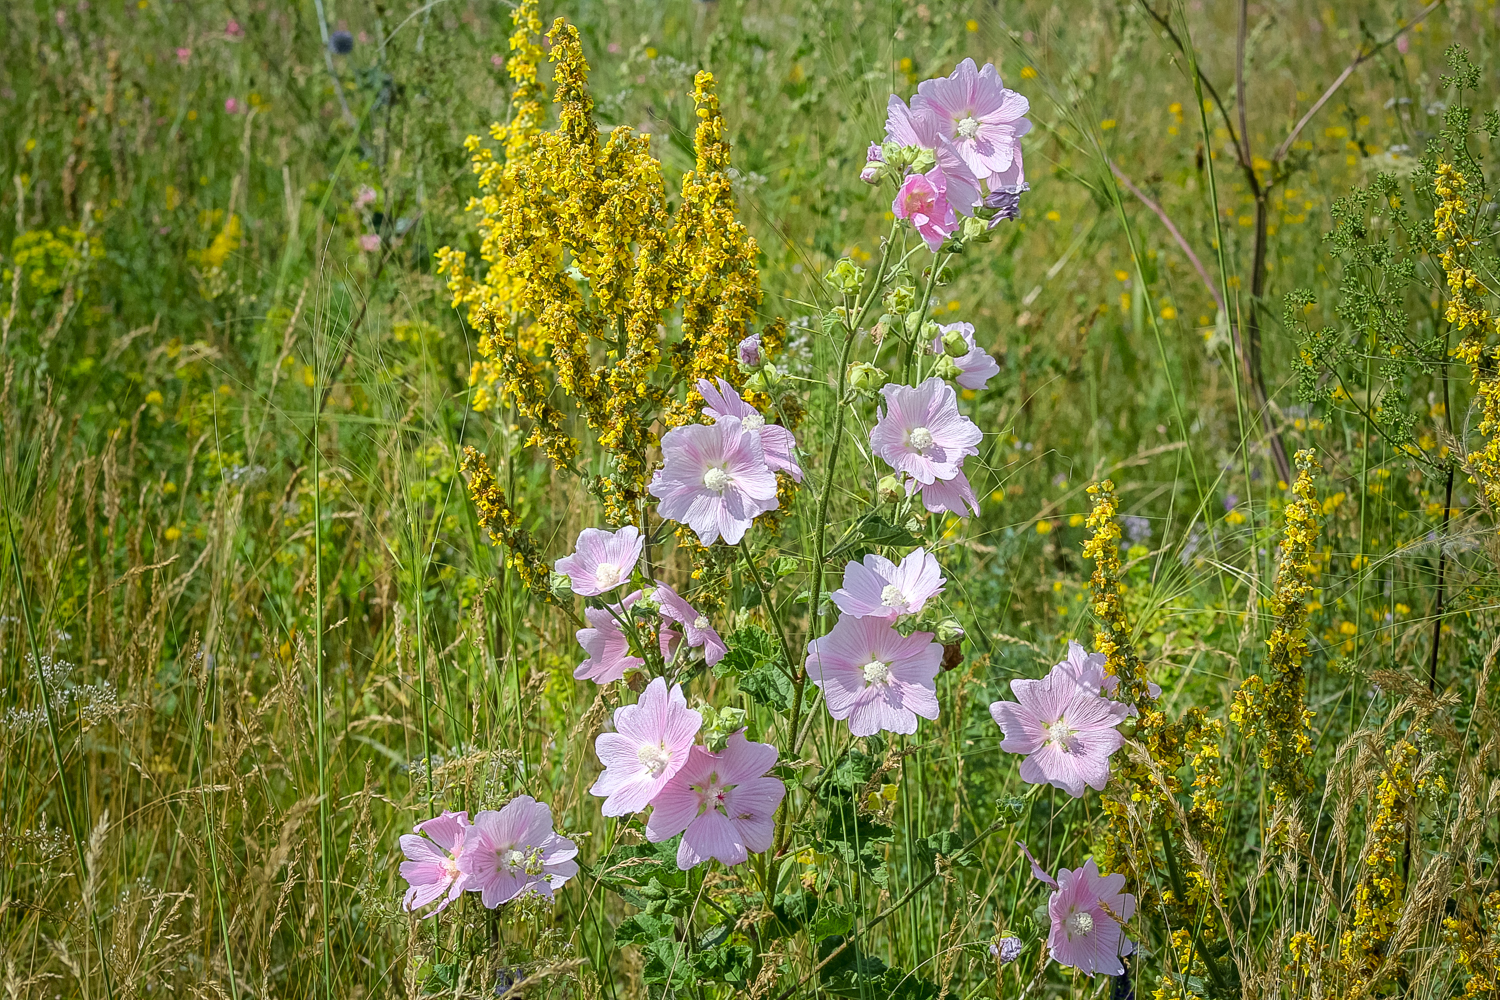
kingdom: Plantae
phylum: Tracheophyta
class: Magnoliopsida
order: Malvales
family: Malvaceae
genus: Malva
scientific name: Malva thuringiaca
